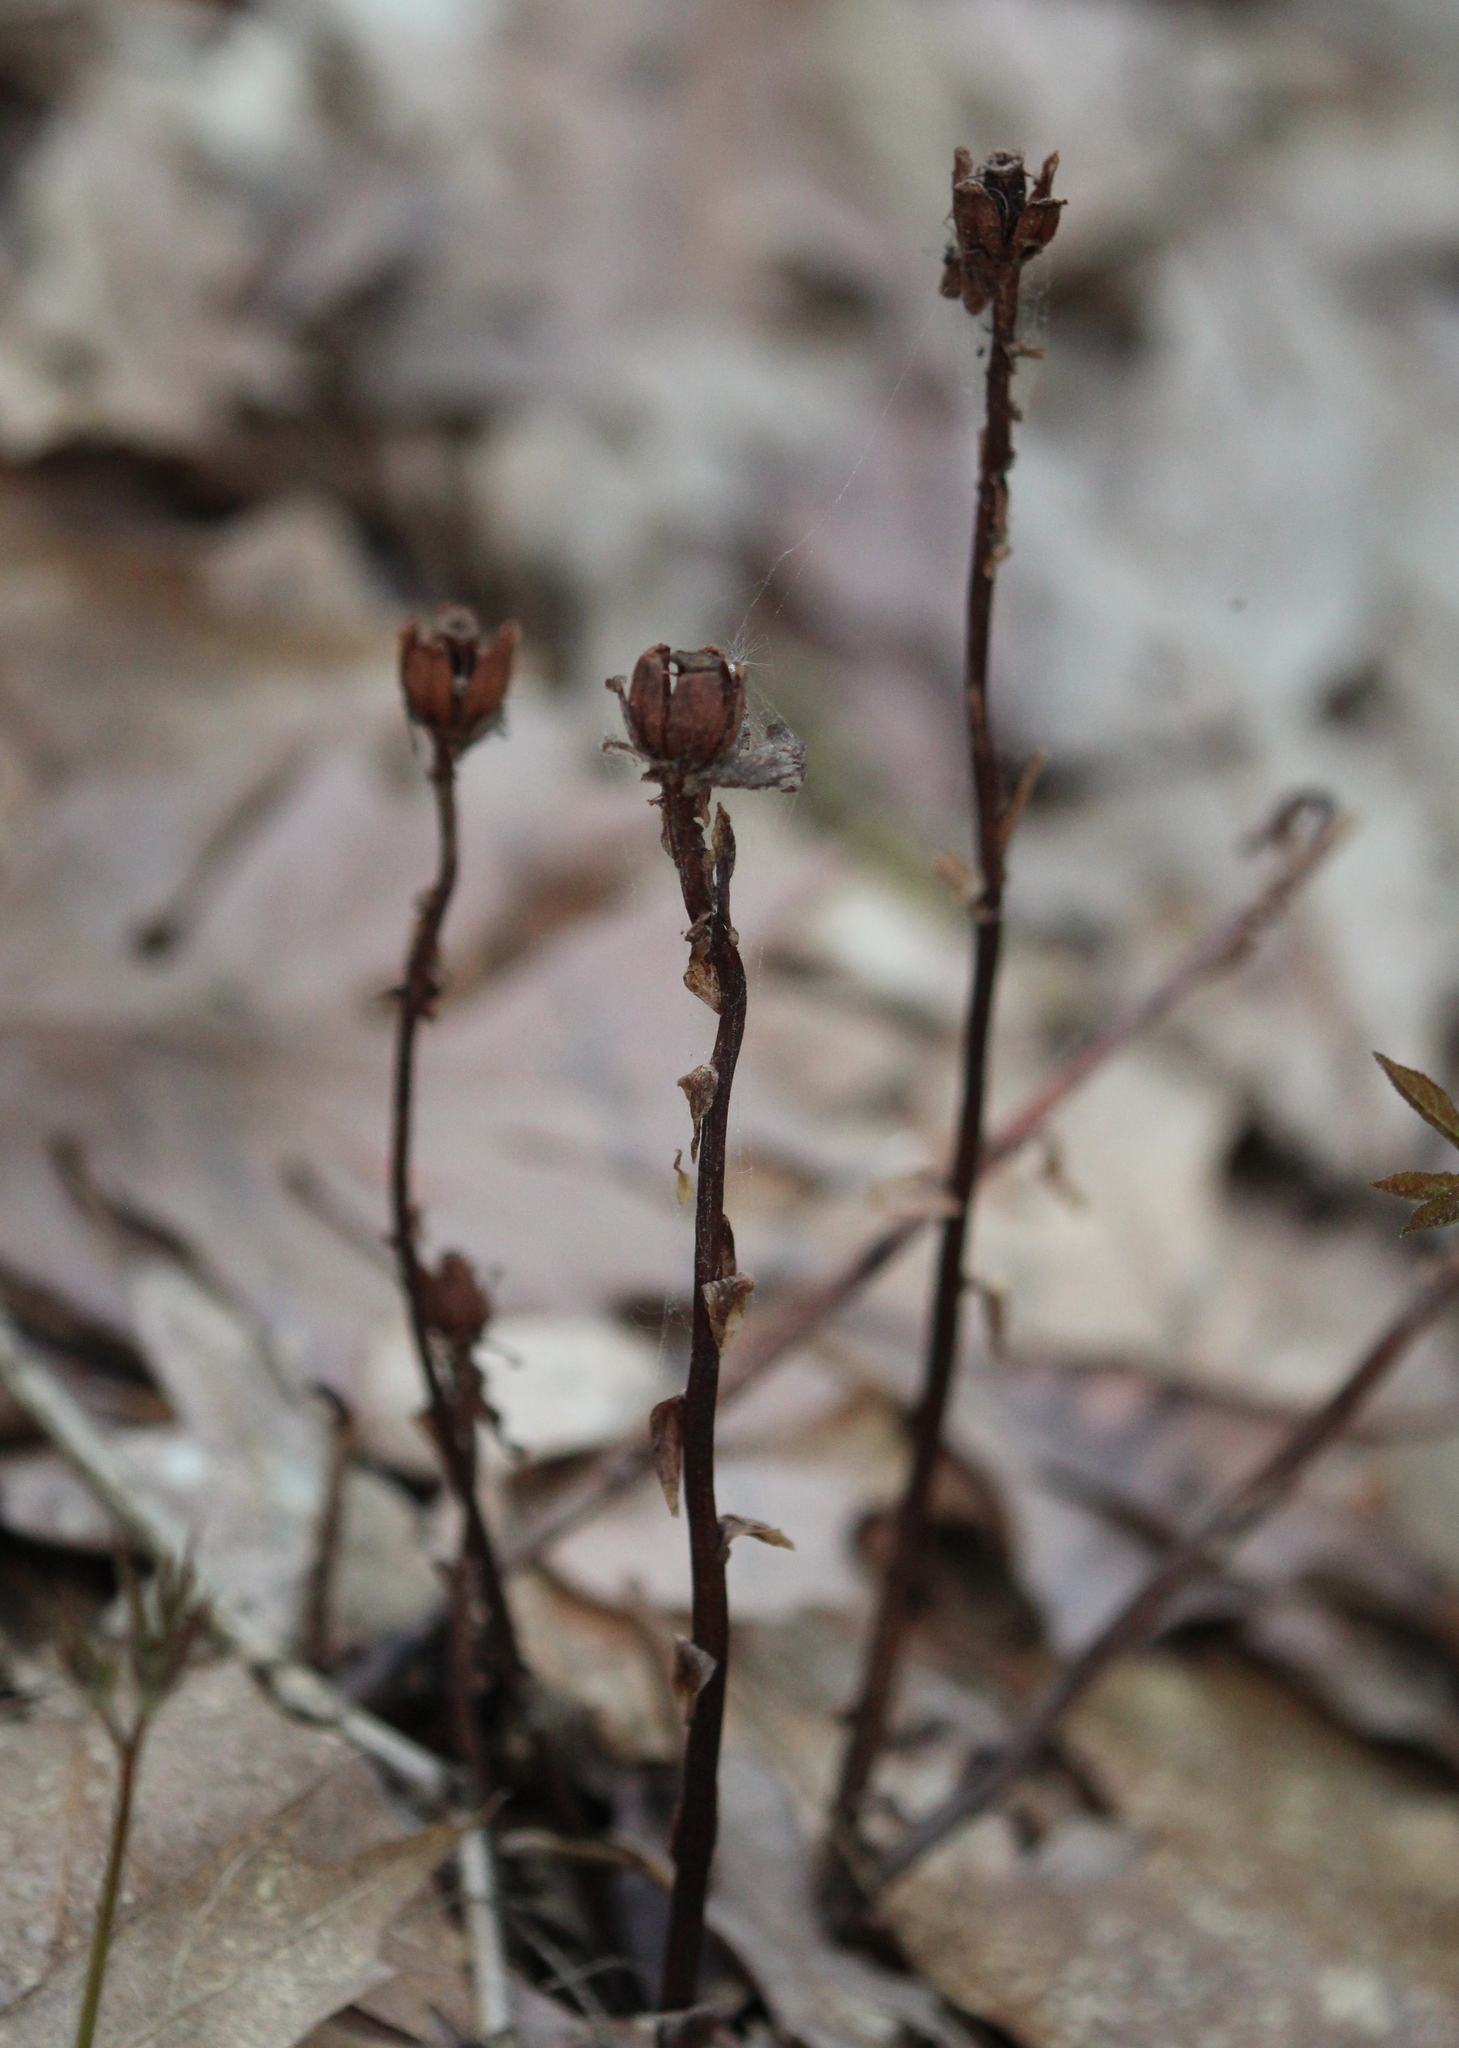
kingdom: Plantae
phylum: Tracheophyta
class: Magnoliopsida
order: Ericales
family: Ericaceae
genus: Monotropa
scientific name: Monotropa uniflora
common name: Convulsion root
